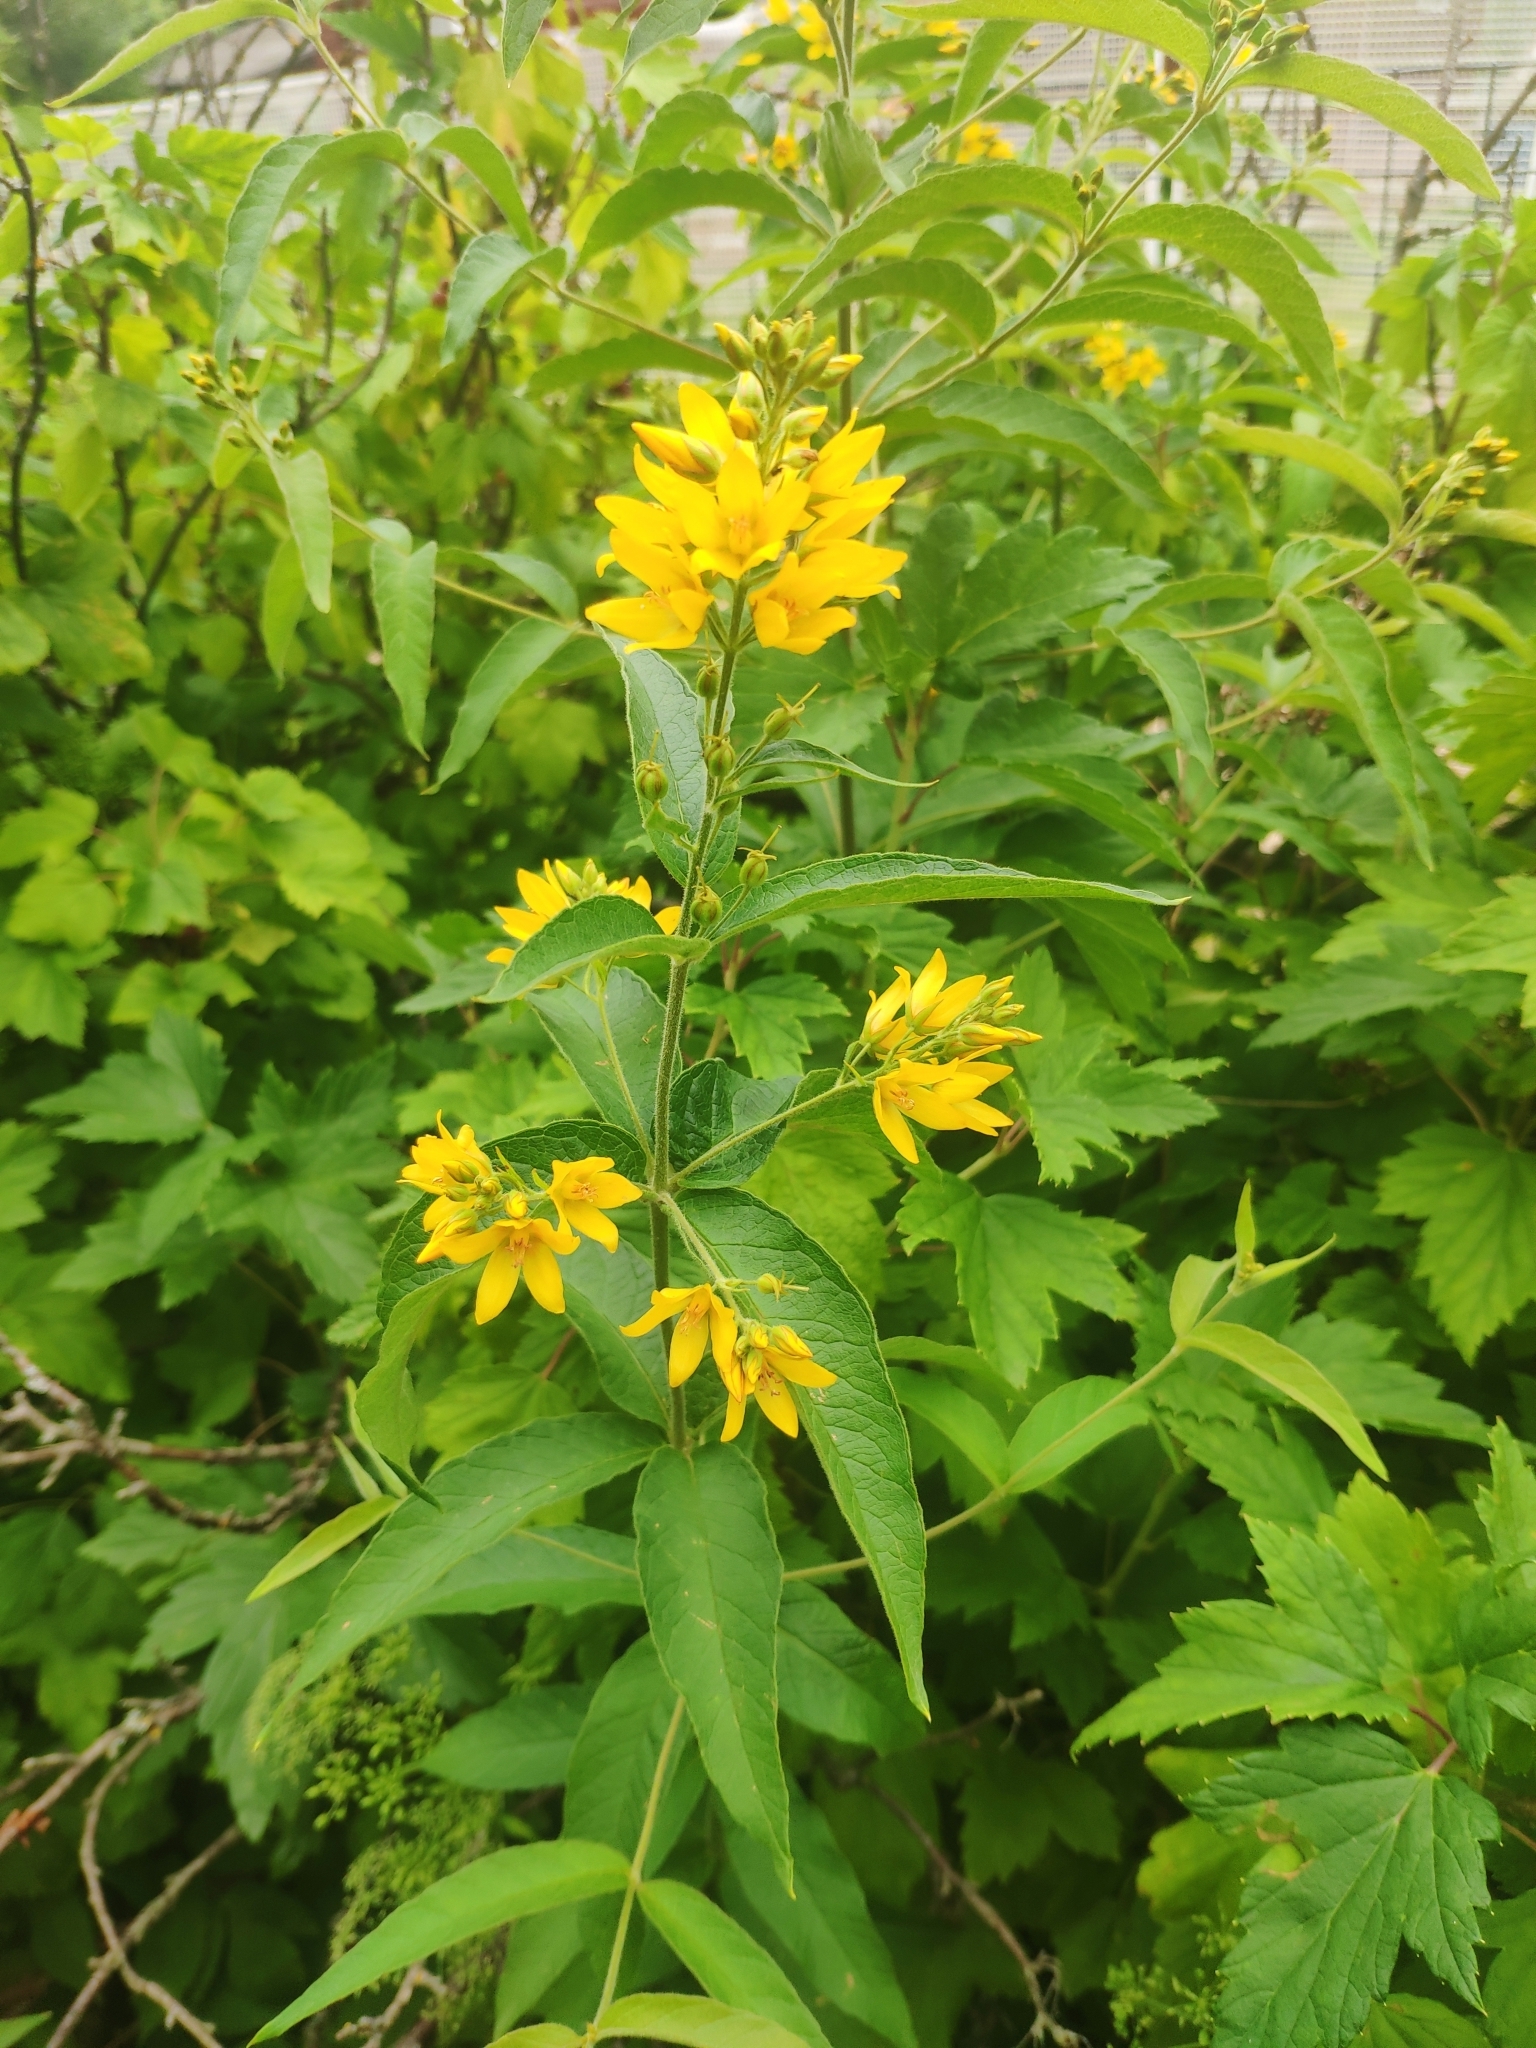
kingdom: Plantae
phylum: Tracheophyta
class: Magnoliopsida
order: Ericales
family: Primulaceae
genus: Lysimachia
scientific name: Lysimachia vulgaris
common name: Yellow loosestrife
